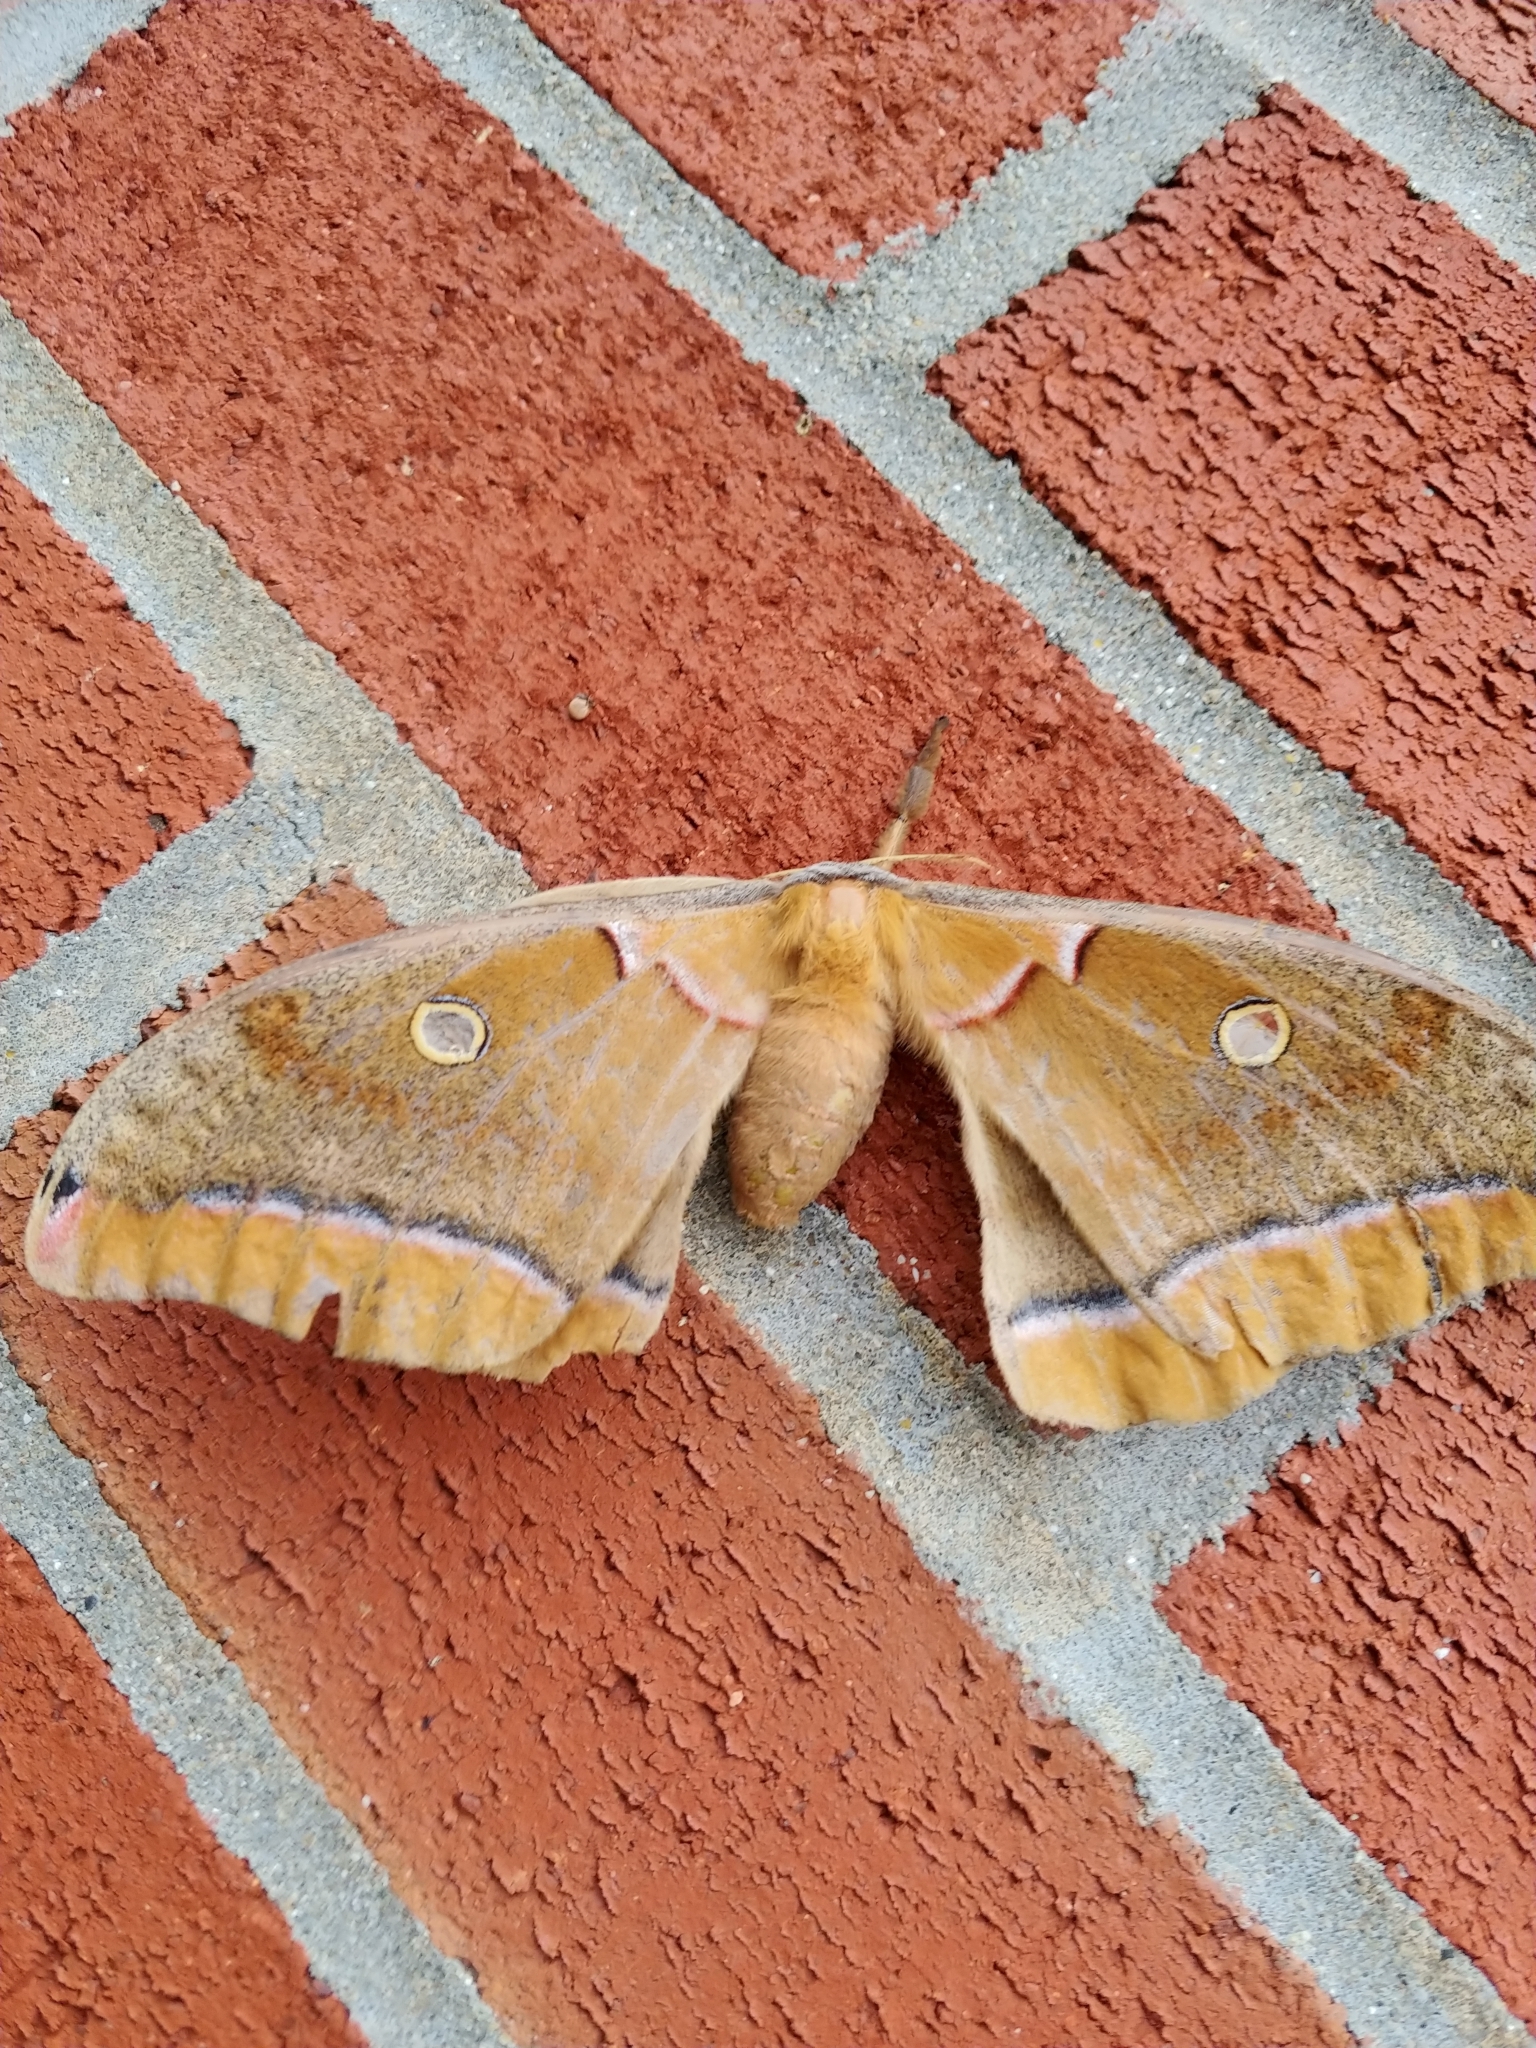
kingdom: Animalia
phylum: Arthropoda
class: Insecta
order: Lepidoptera
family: Saturniidae
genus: Antheraea
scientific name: Antheraea polyphemus
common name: Polyphemus moth
